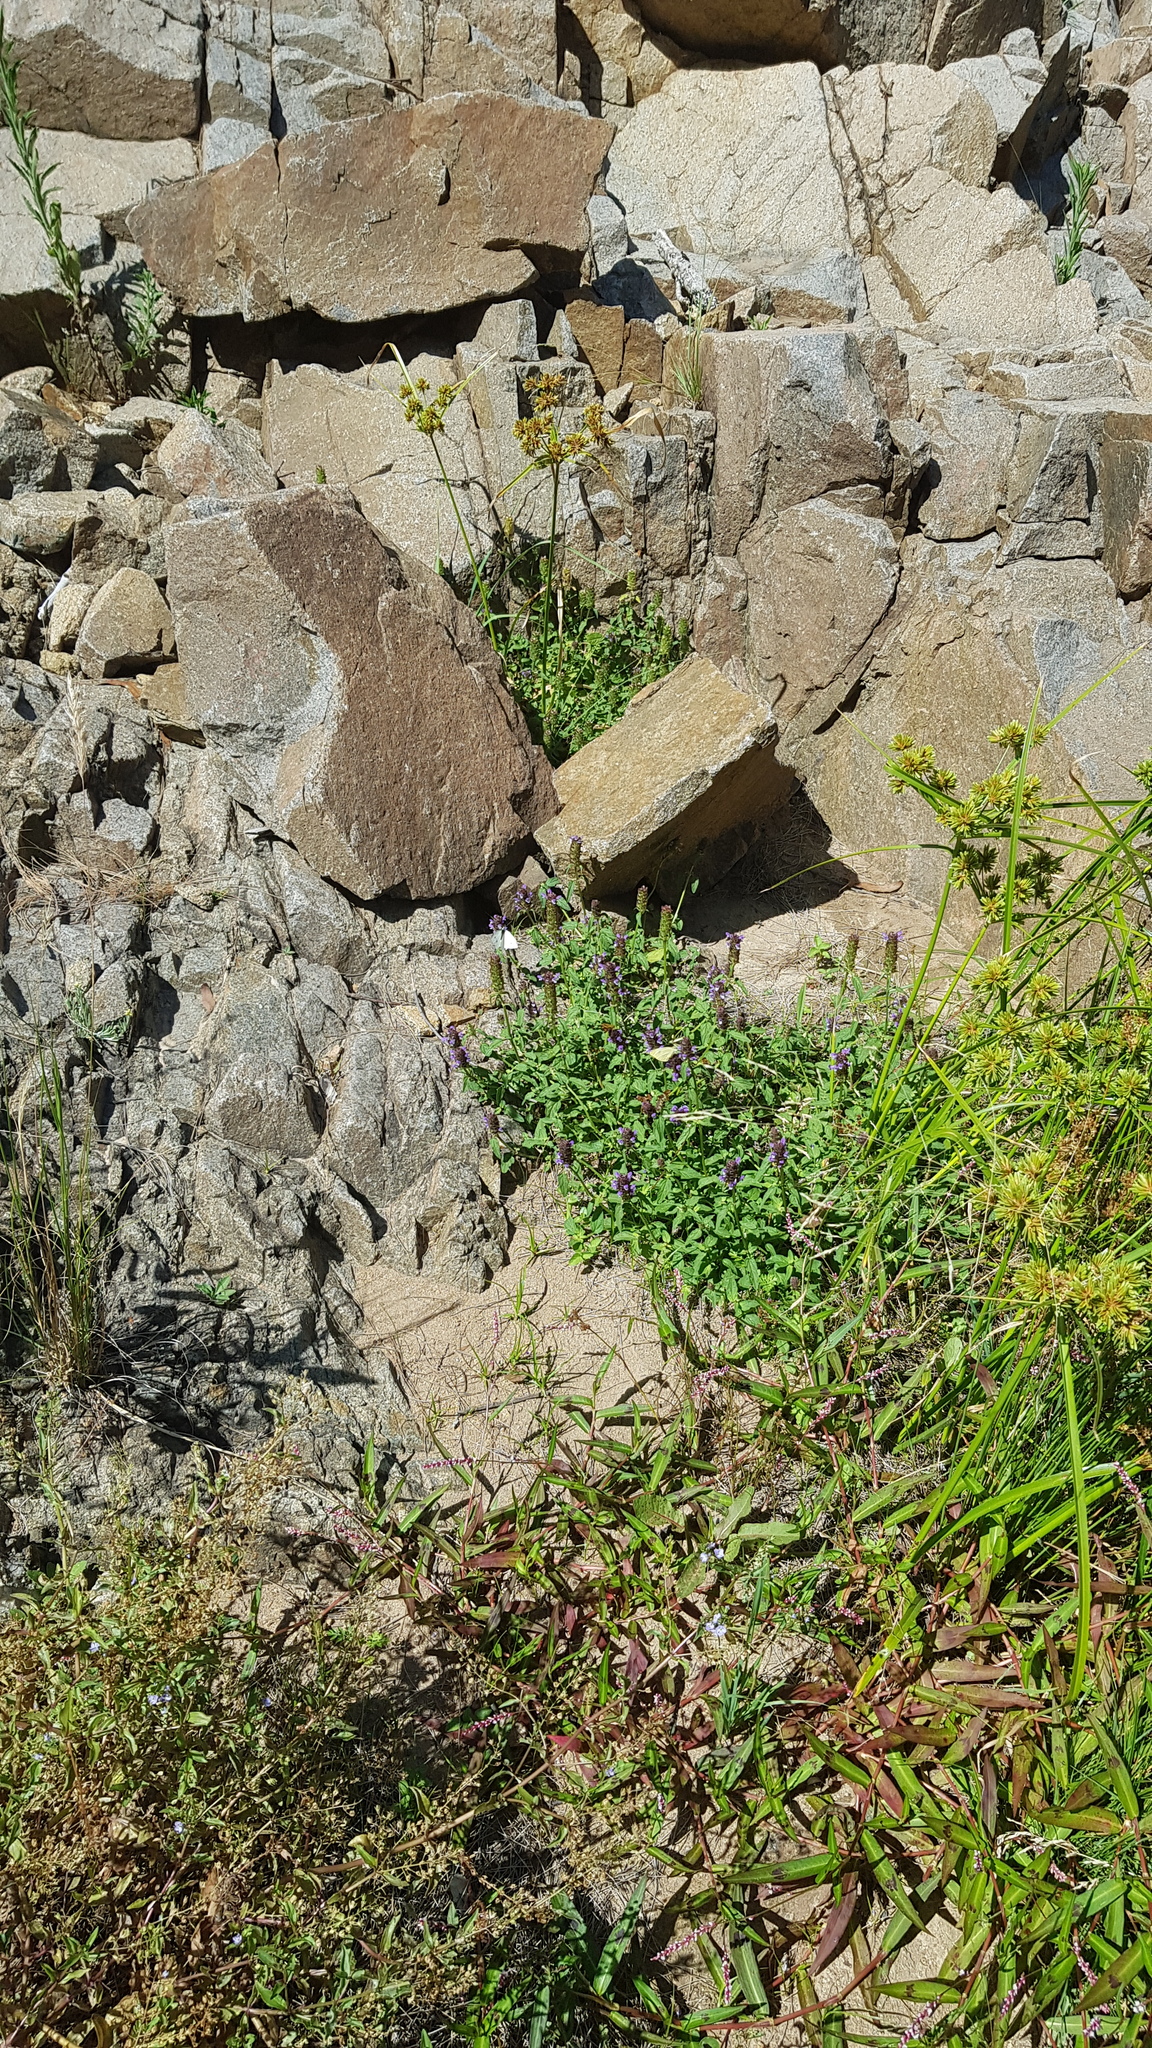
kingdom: Animalia
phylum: Arthropoda
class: Insecta
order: Lepidoptera
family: Pieridae
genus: Pieris
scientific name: Pieris rapae
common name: Small white
